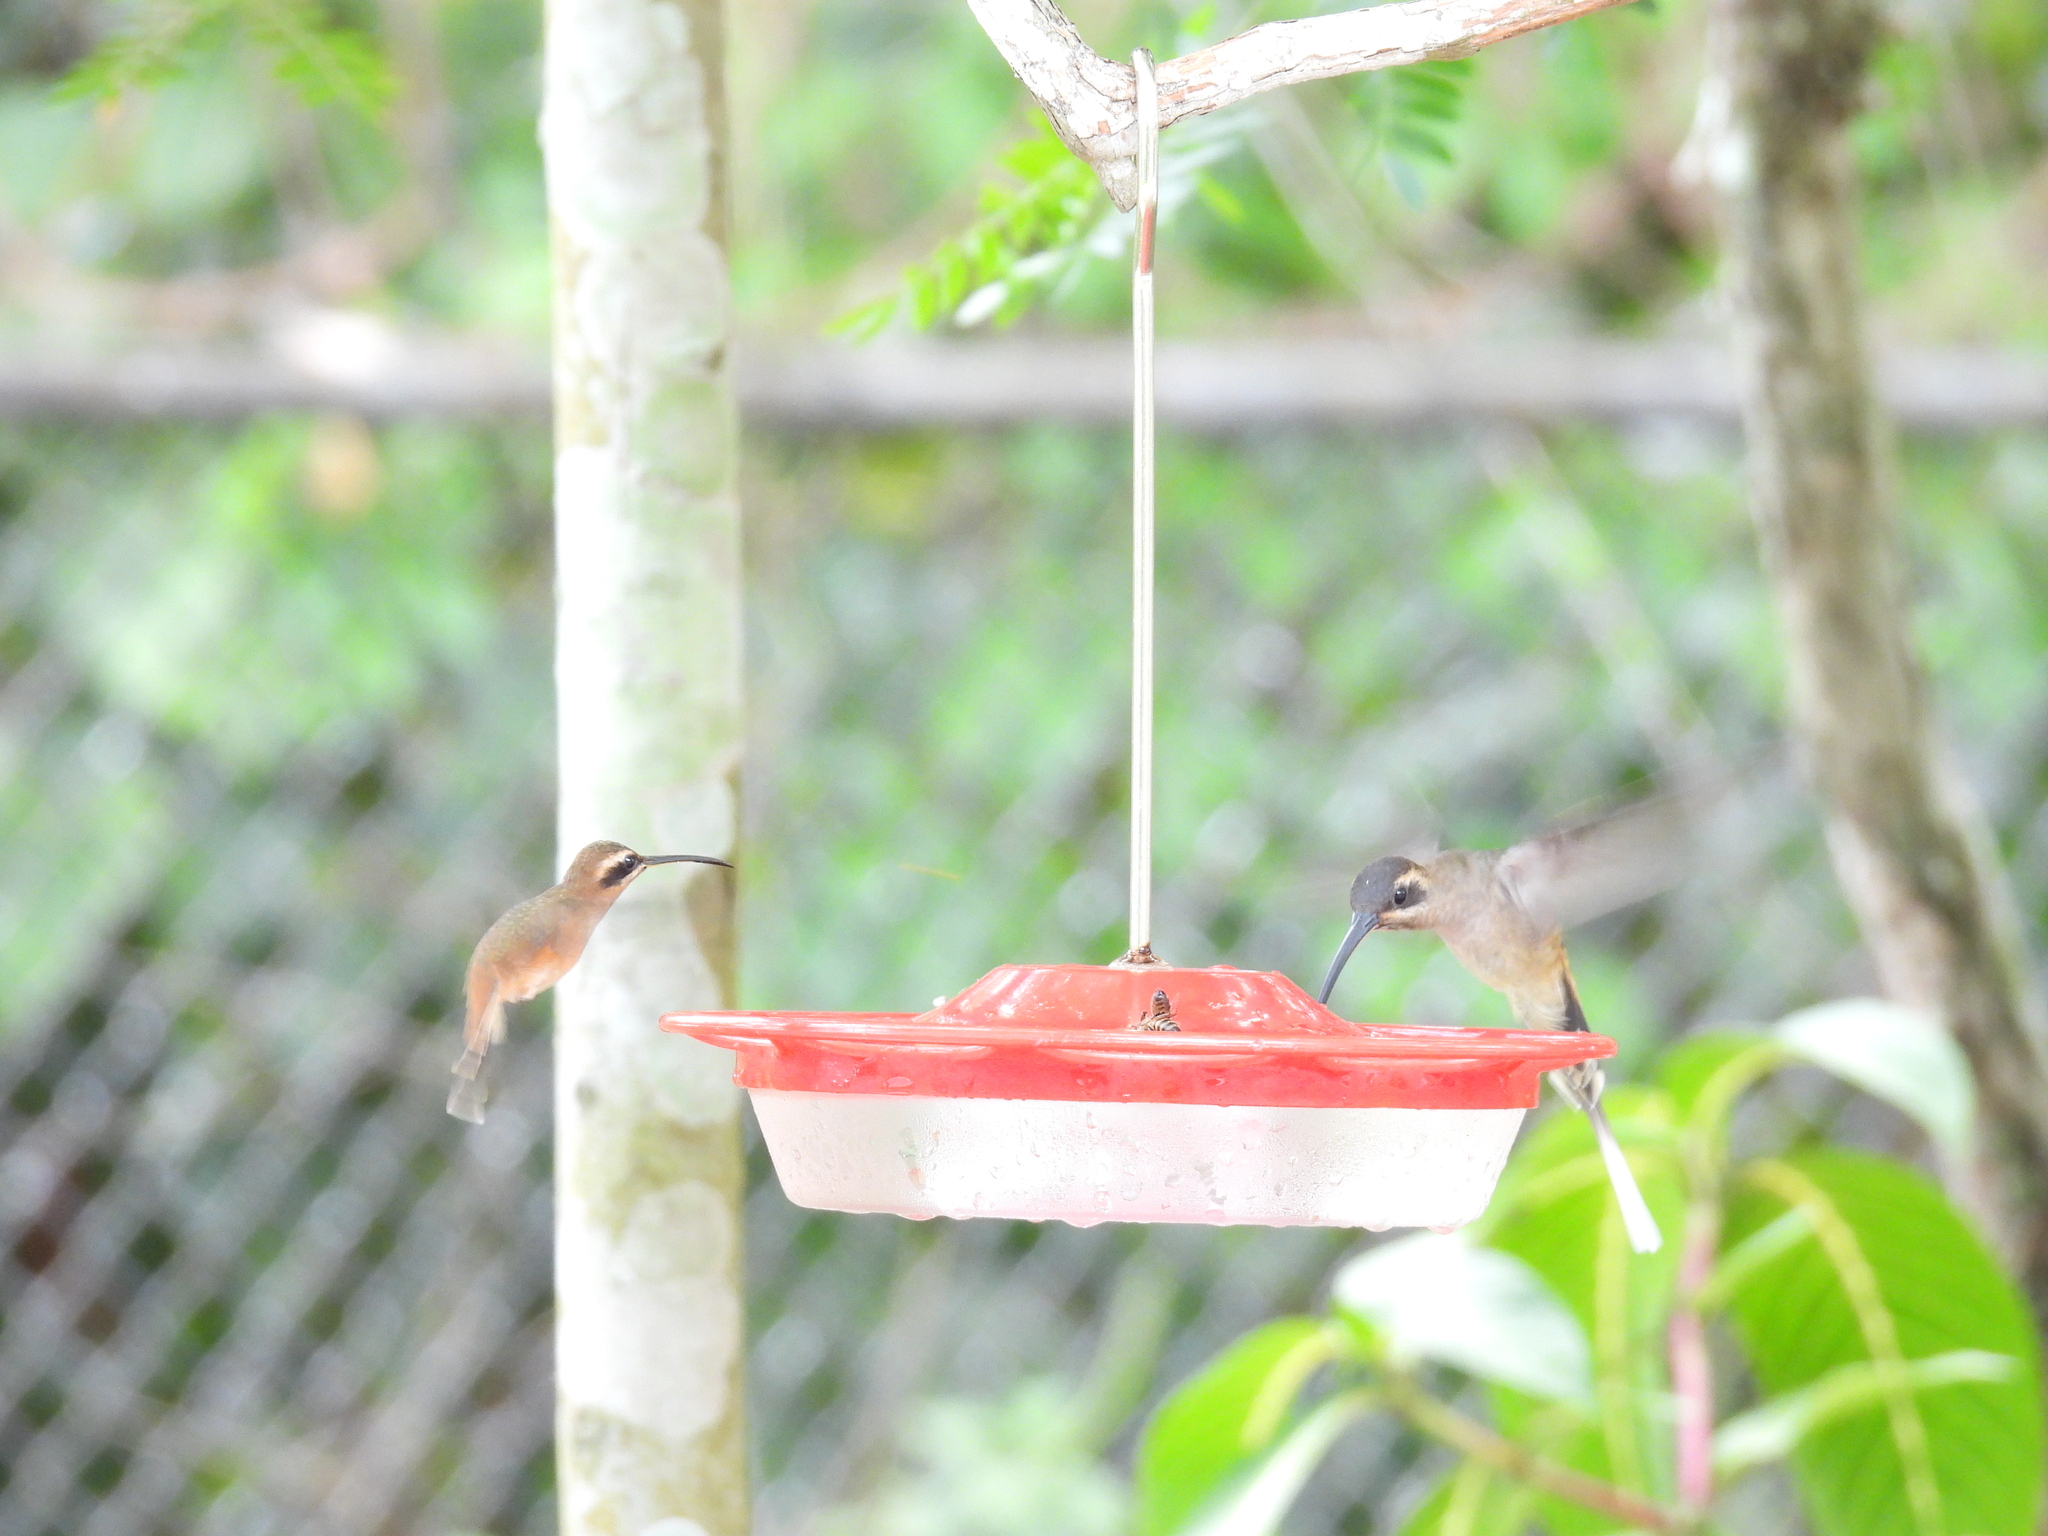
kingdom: Animalia
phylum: Chordata
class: Aves
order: Apodiformes
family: Trochilidae
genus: Phaethornis
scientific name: Phaethornis striigularis
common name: Stripe-throated hermit
